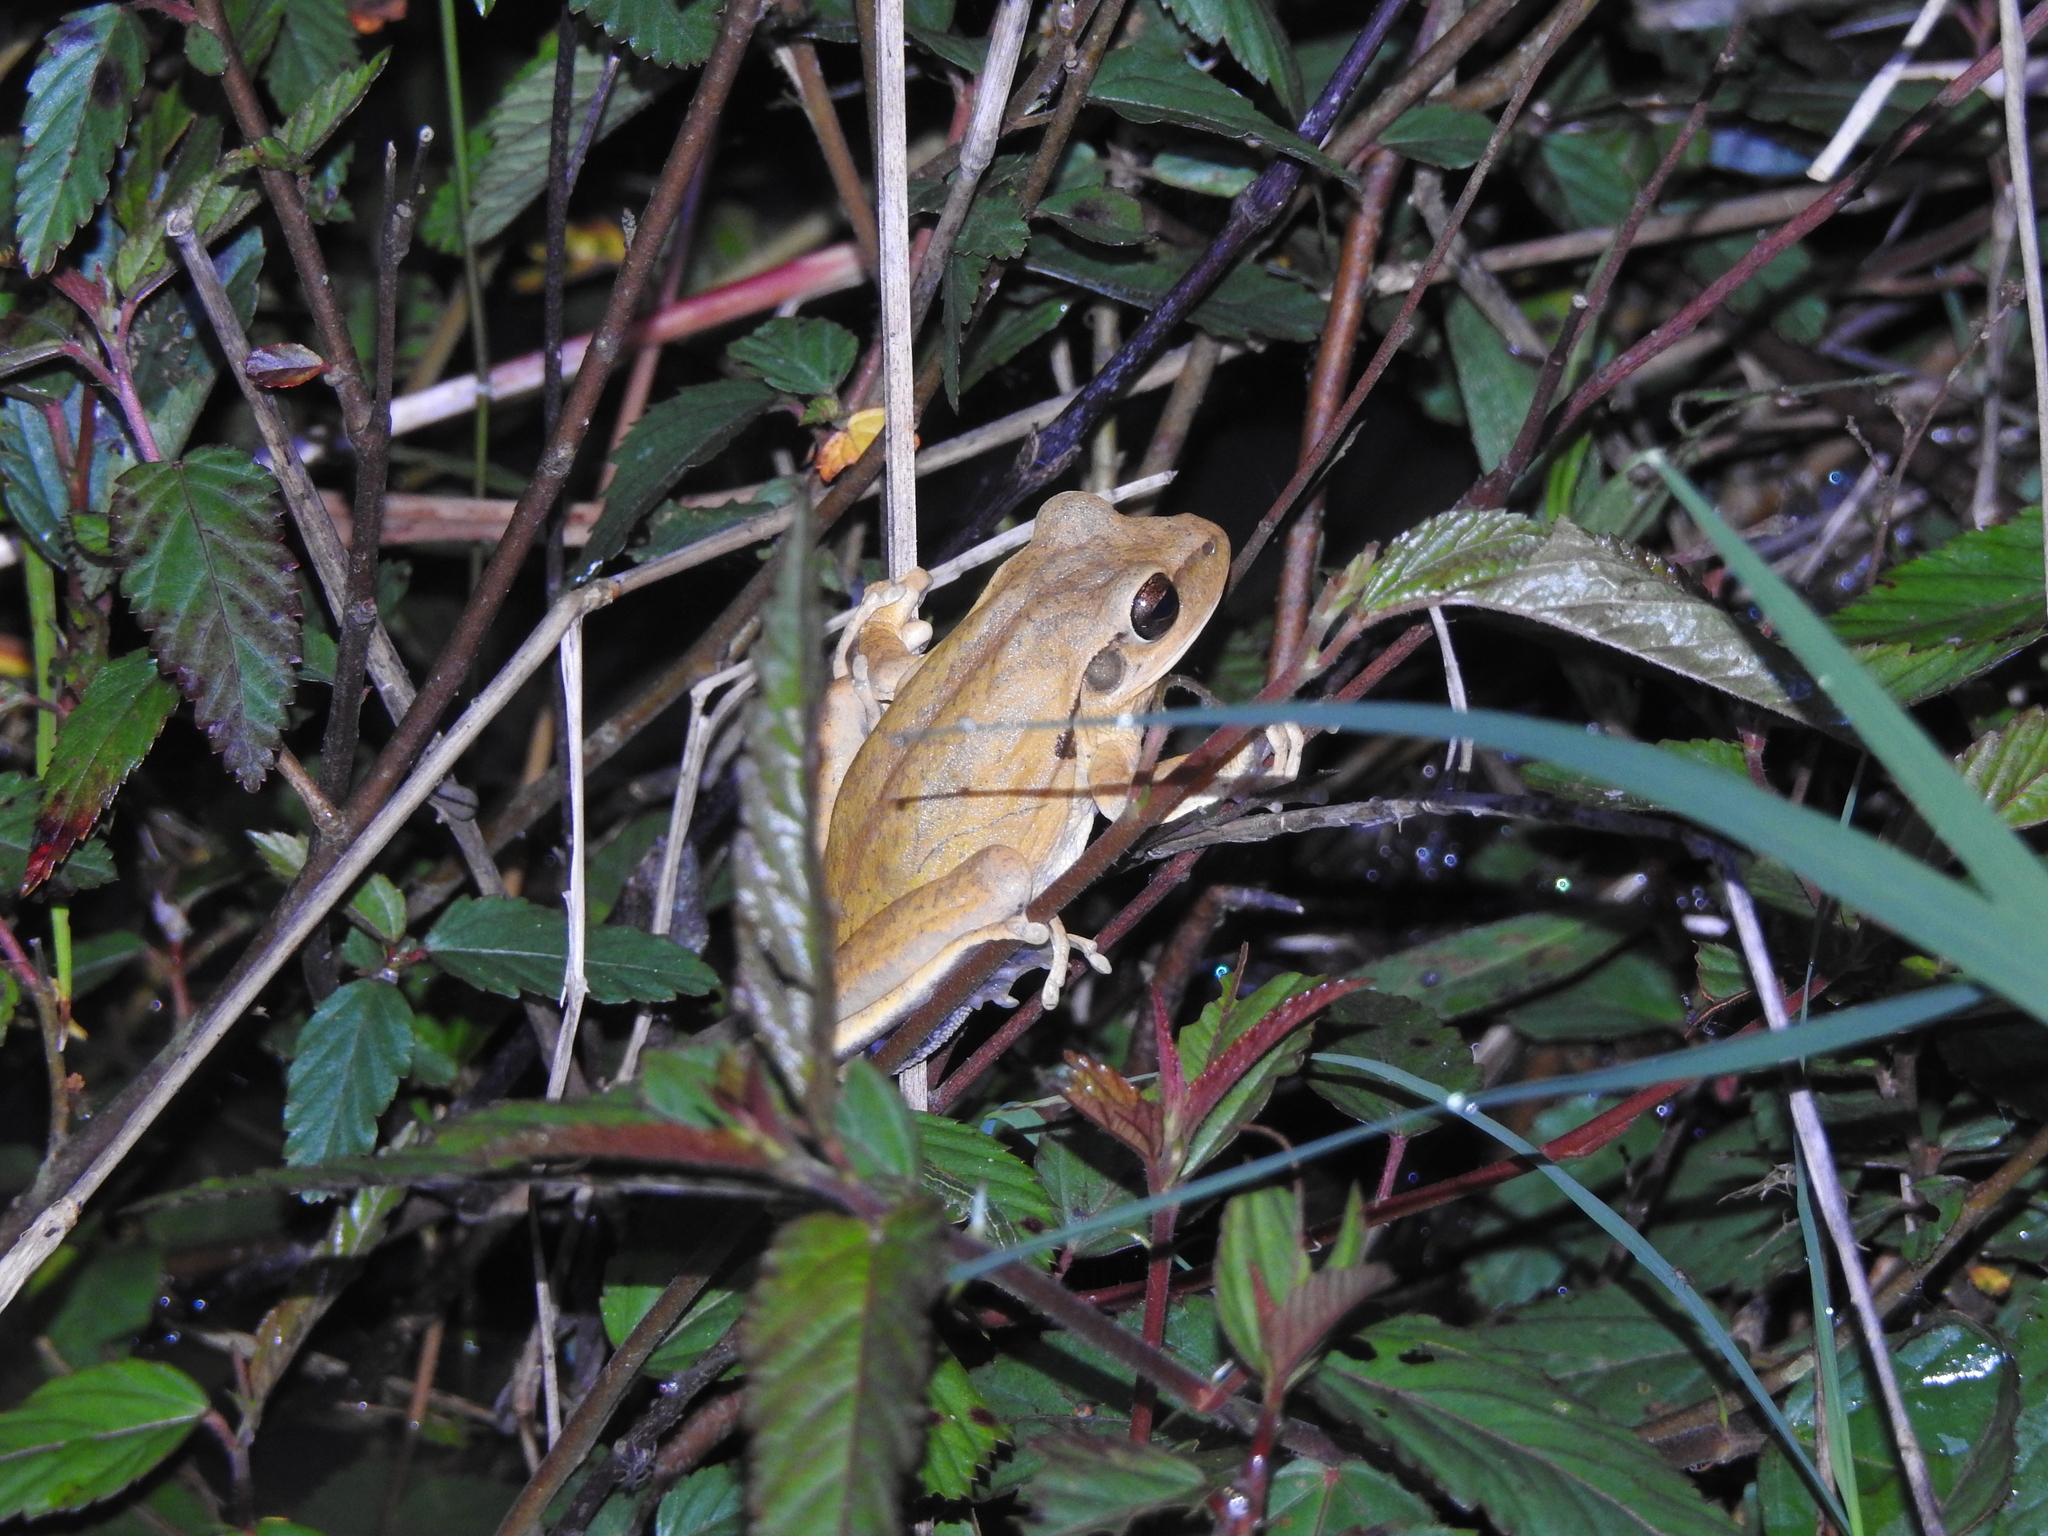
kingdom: Animalia
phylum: Chordata
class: Amphibia
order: Anura
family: Hylidae
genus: Boana
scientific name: Boana raniceps
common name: Chaco treefrog
